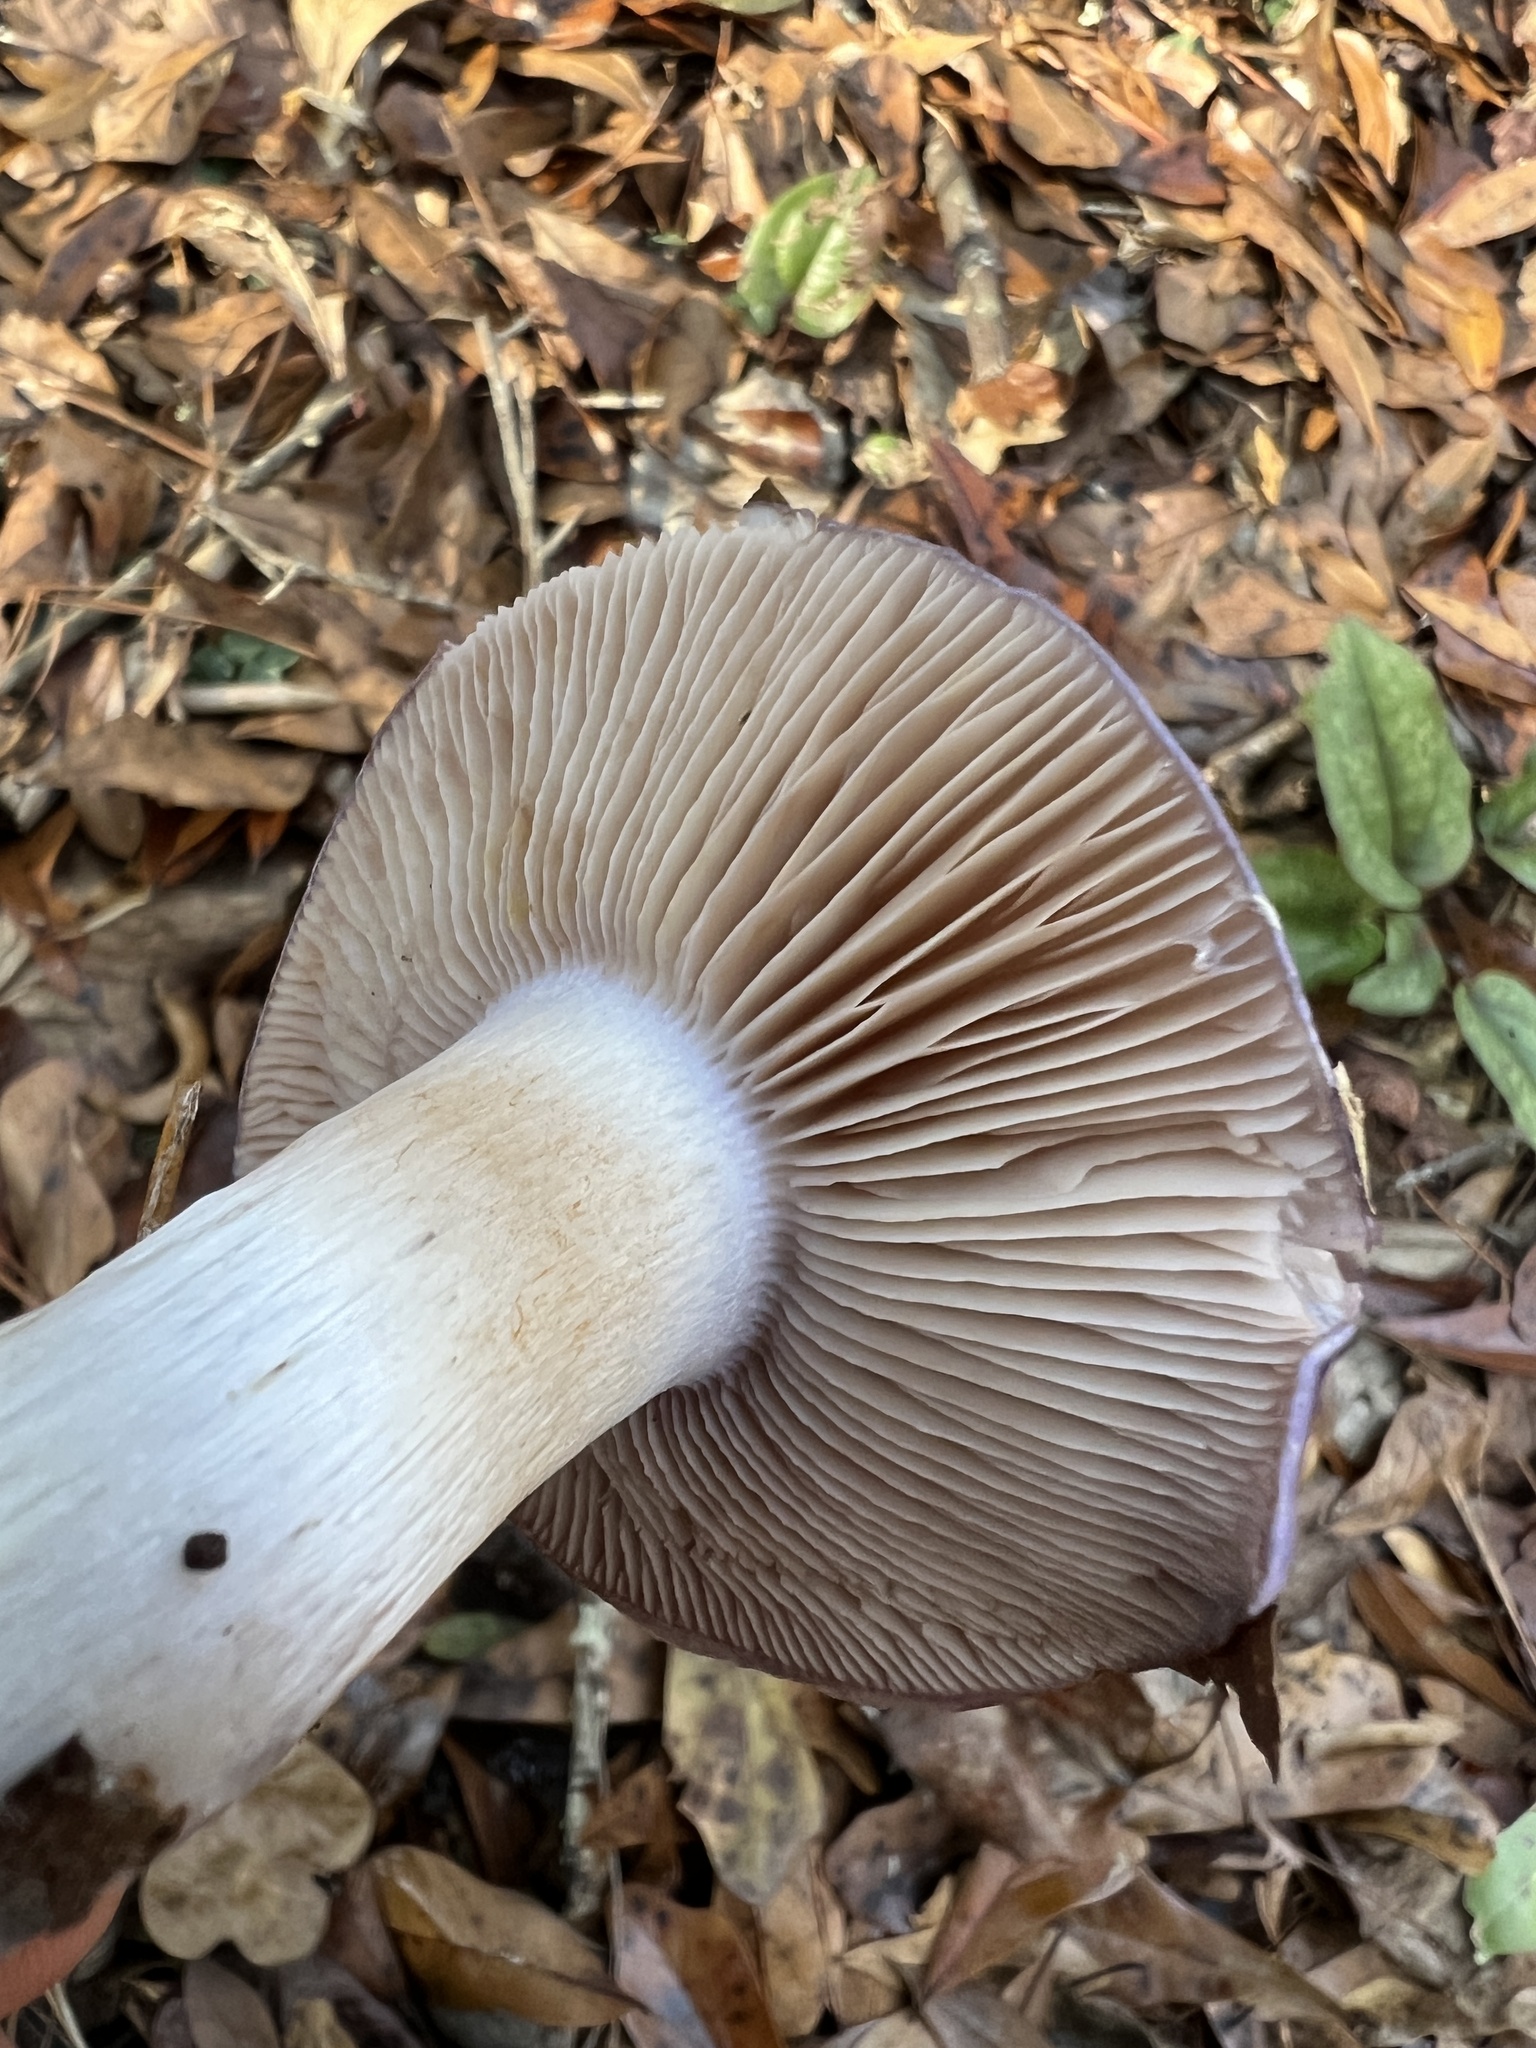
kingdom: Fungi
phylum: Basidiomycota
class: Agaricomycetes
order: Agaricales
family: Cortinariaceae
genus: Cortinarius
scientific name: Cortinarius iodes
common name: Viscid violet cort
